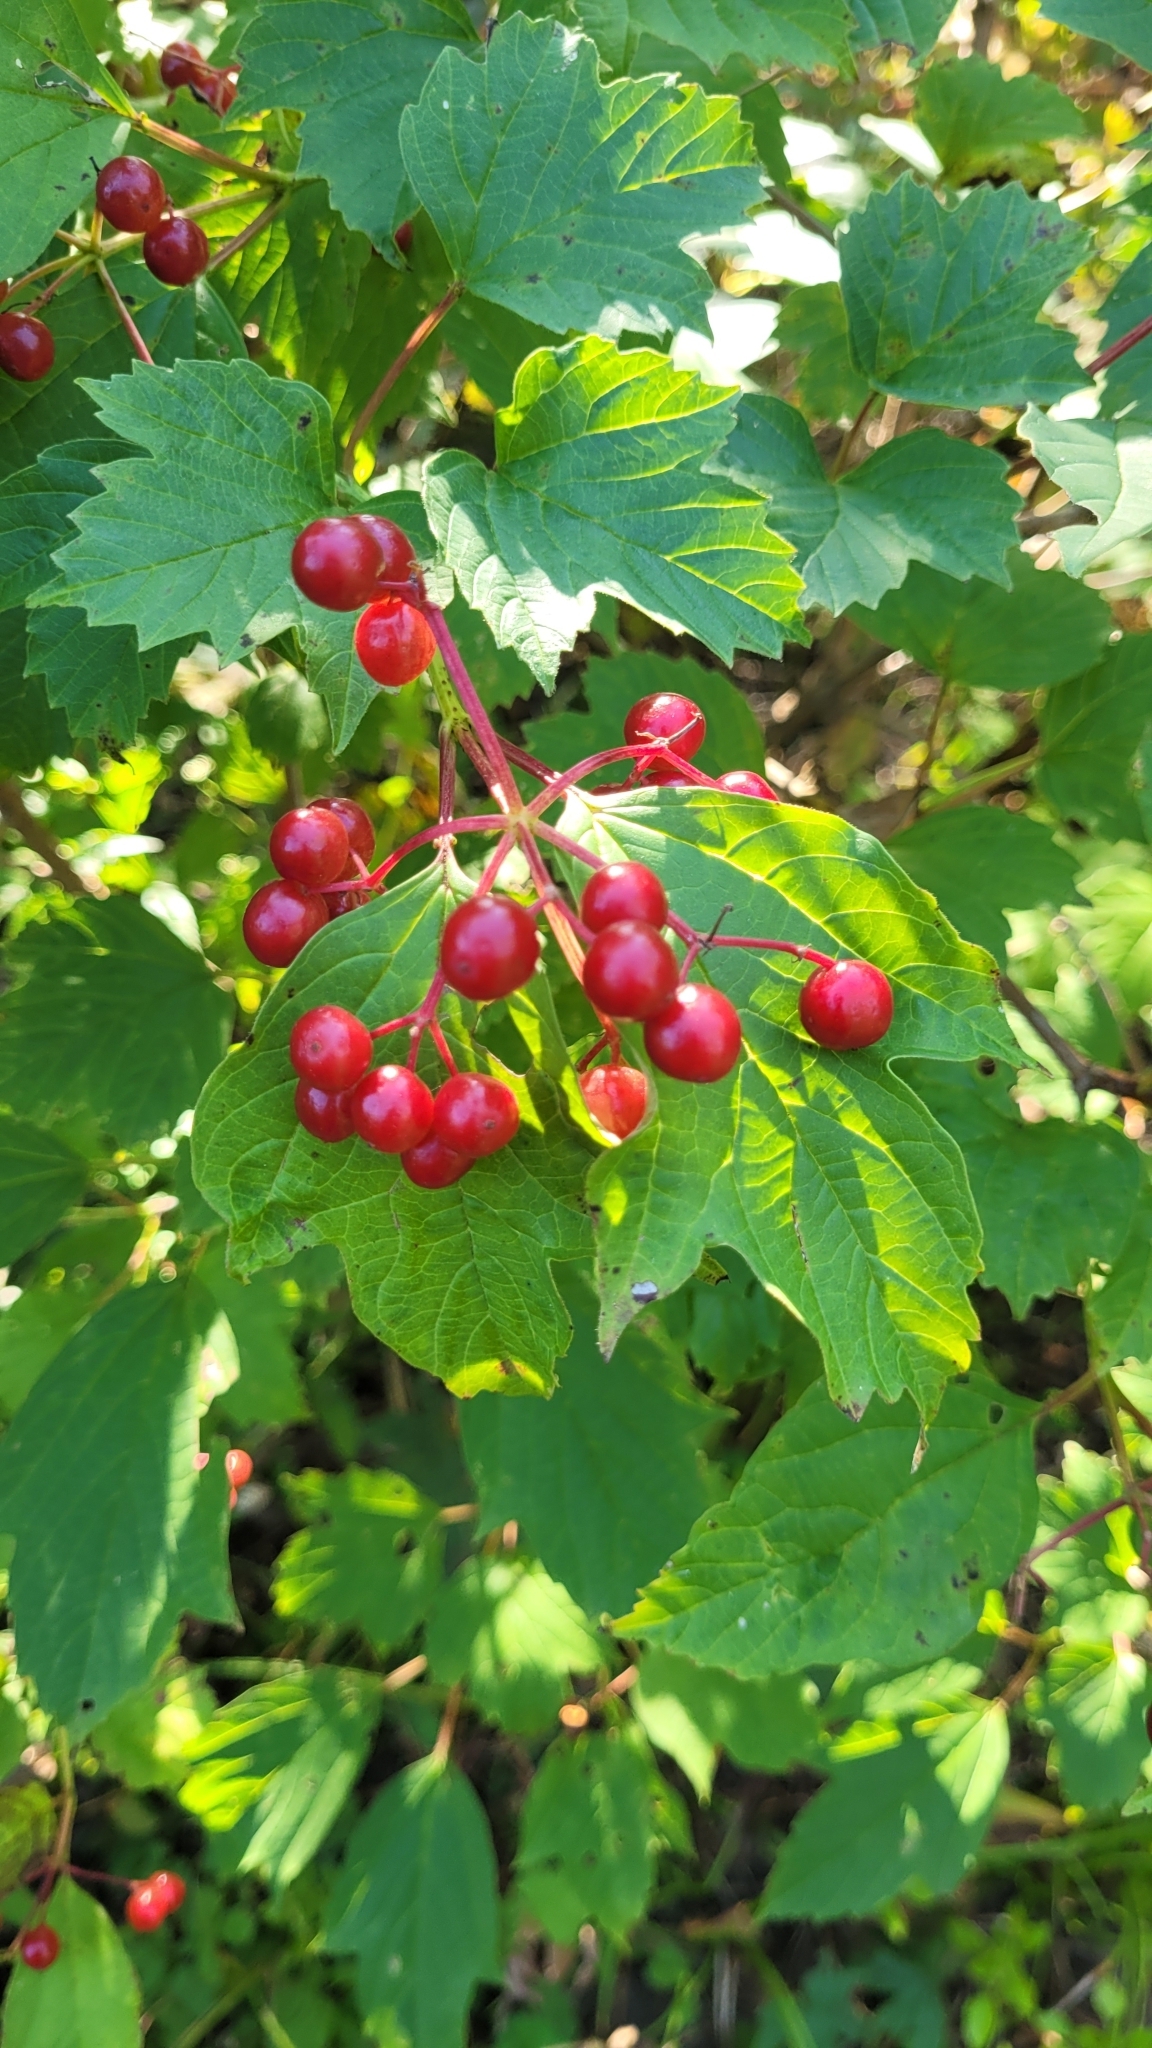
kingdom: Plantae
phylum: Tracheophyta
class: Magnoliopsida
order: Dipsacales
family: Viburnaceae
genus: Viburnum
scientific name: Viburnum sargentii
